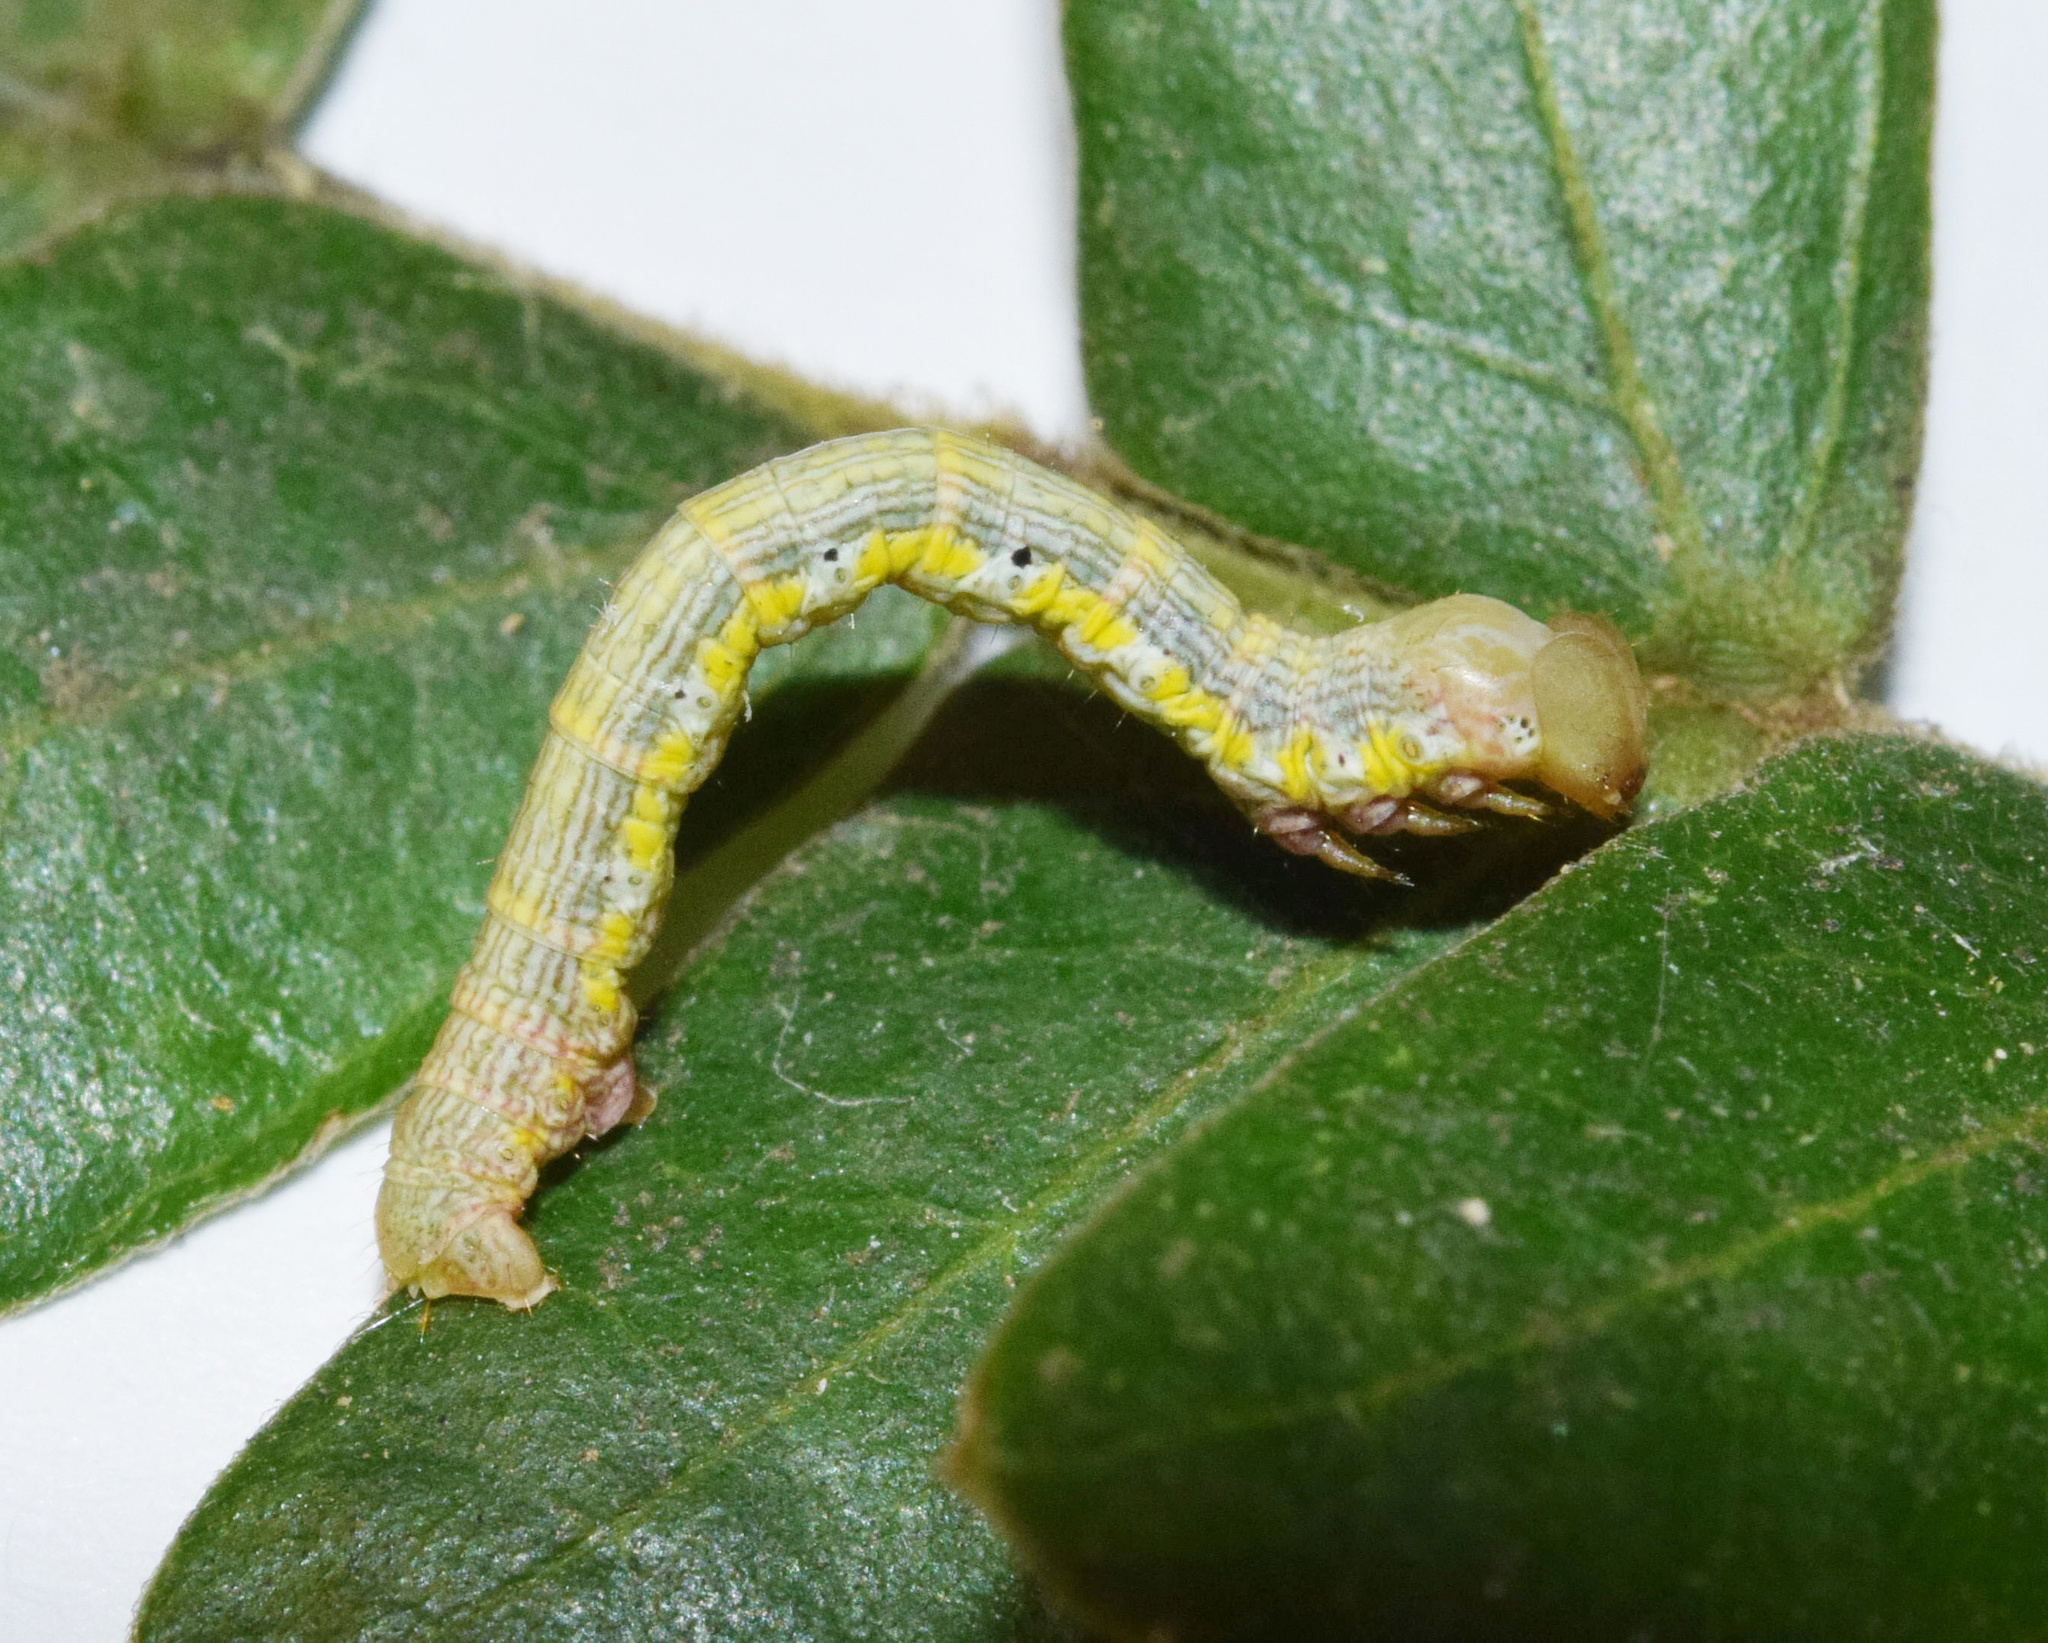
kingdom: Animalia
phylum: Arthropoda
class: Insecta
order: Lepidoptera
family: Geometridae
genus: Chiasmia
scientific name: Chiasmia rectistriaria
